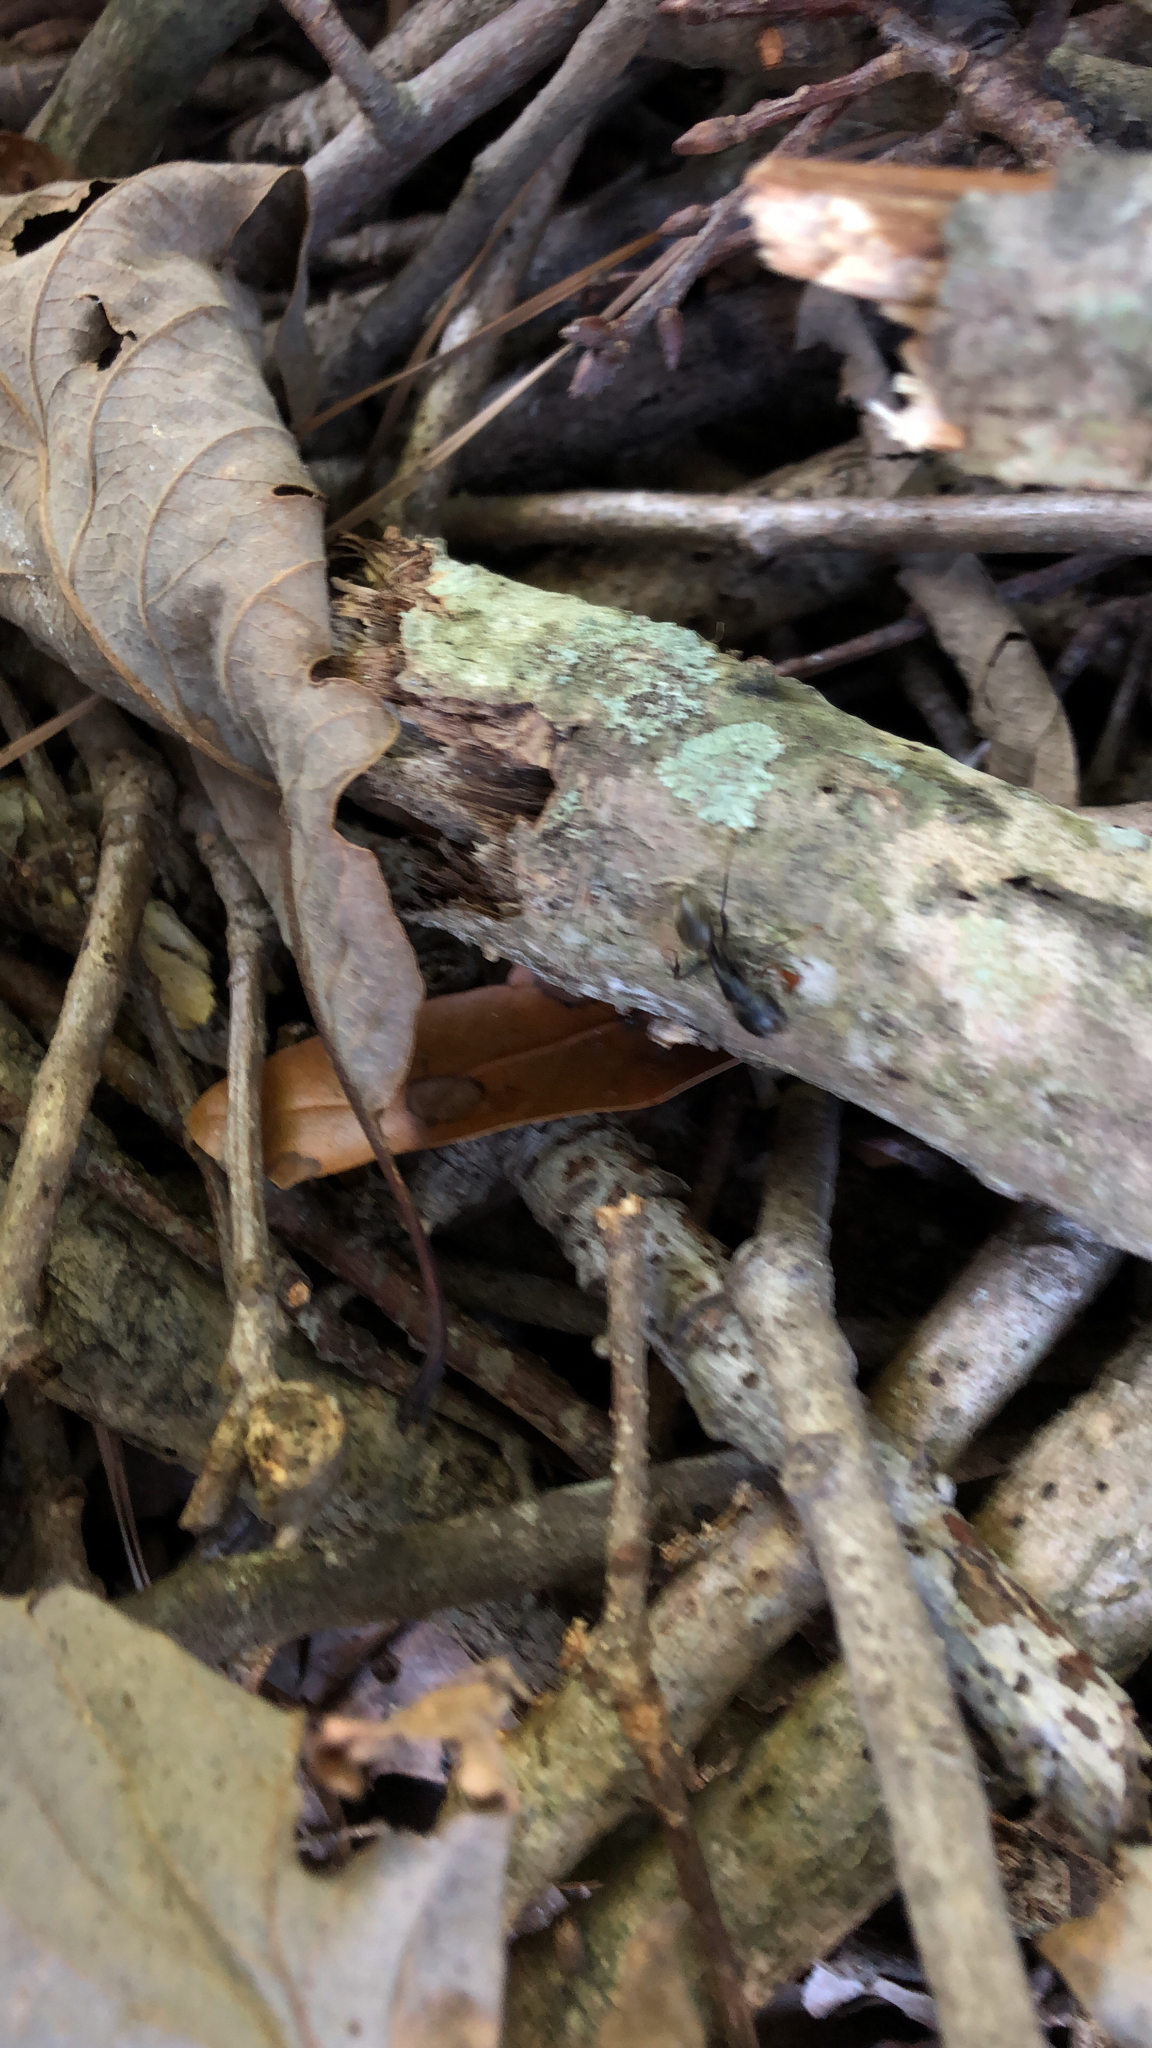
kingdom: Animalia
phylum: Arthropoda
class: Insecta
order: Hymenoptera
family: Formicidae
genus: Camponotus
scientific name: Camponotus pennsylvanicus
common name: Black carpenter ant
